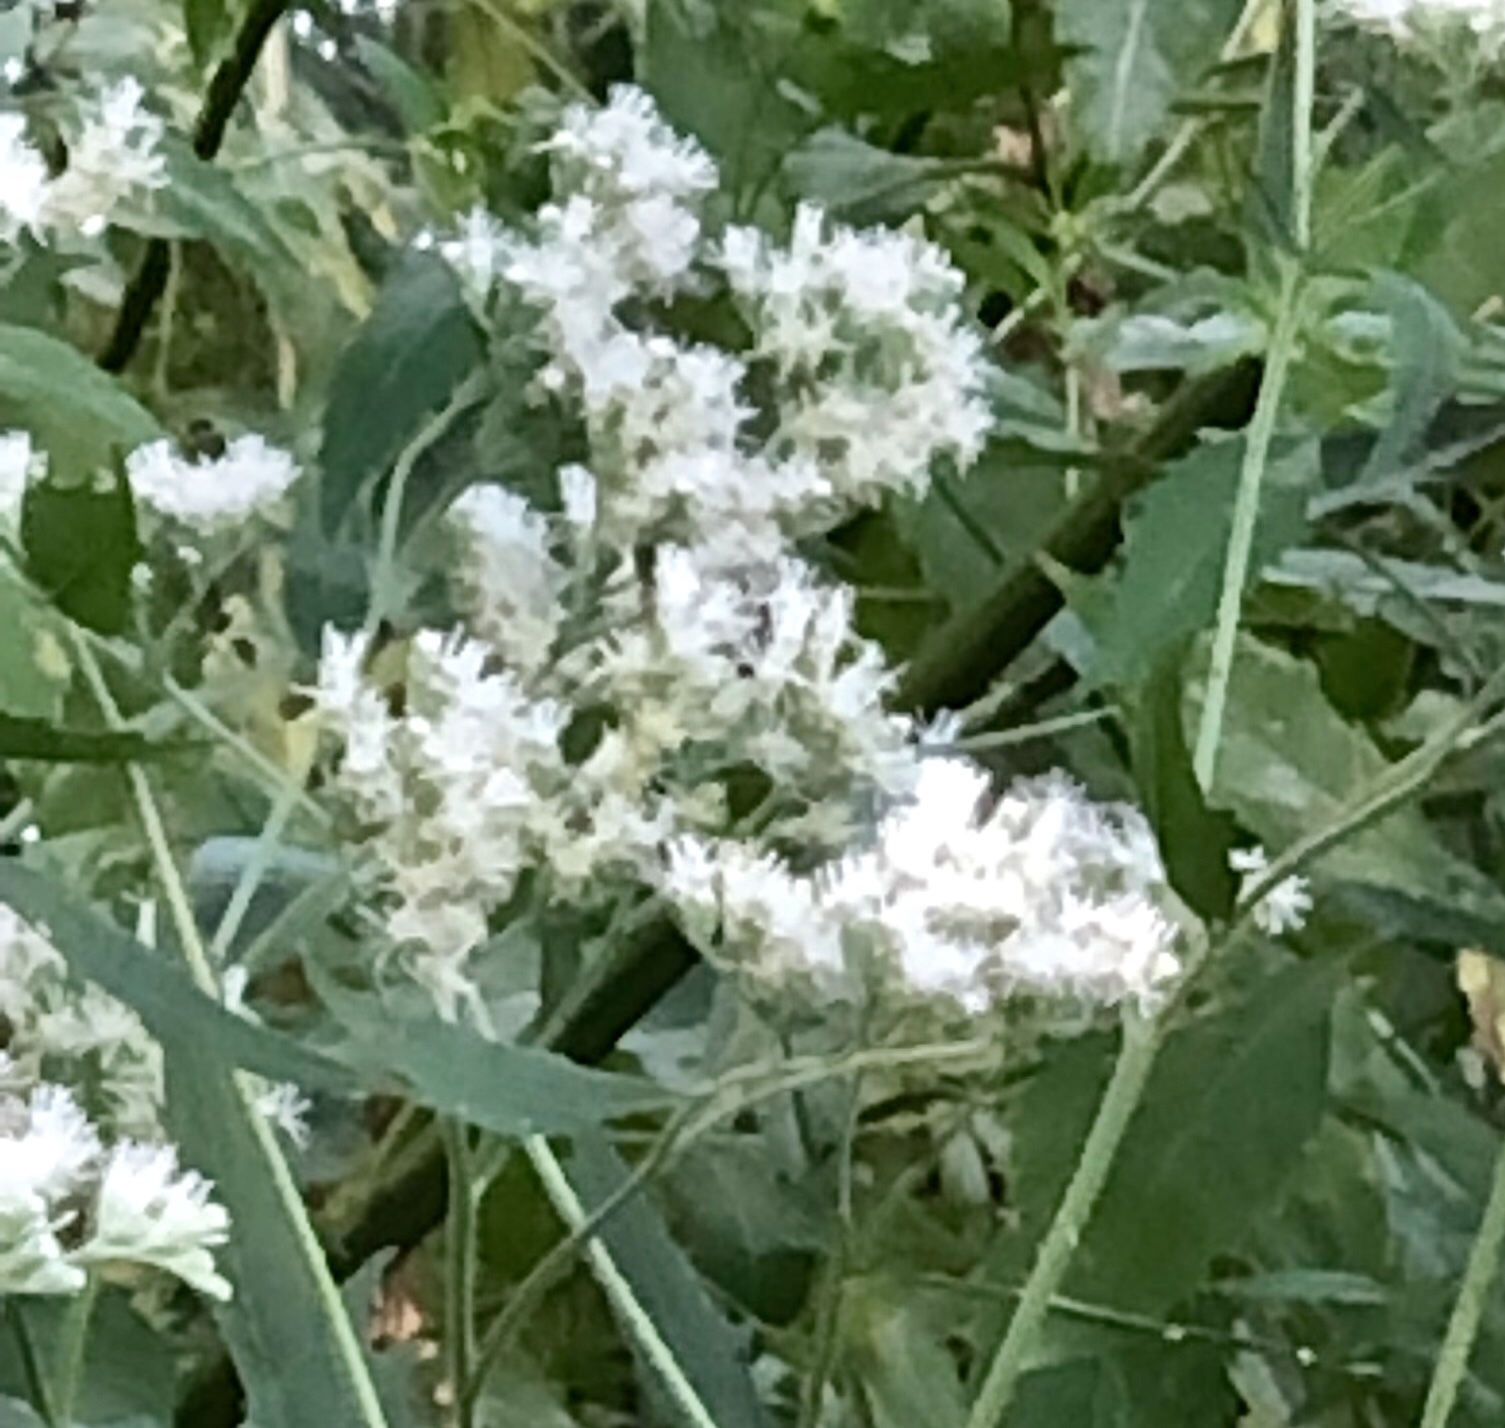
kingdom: Plantae
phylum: Tracheophyta
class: Magnoliopsida
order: Asterales
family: Asteraceae
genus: Eupatorium
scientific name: Eupatorium serotinum
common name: Late boneset
